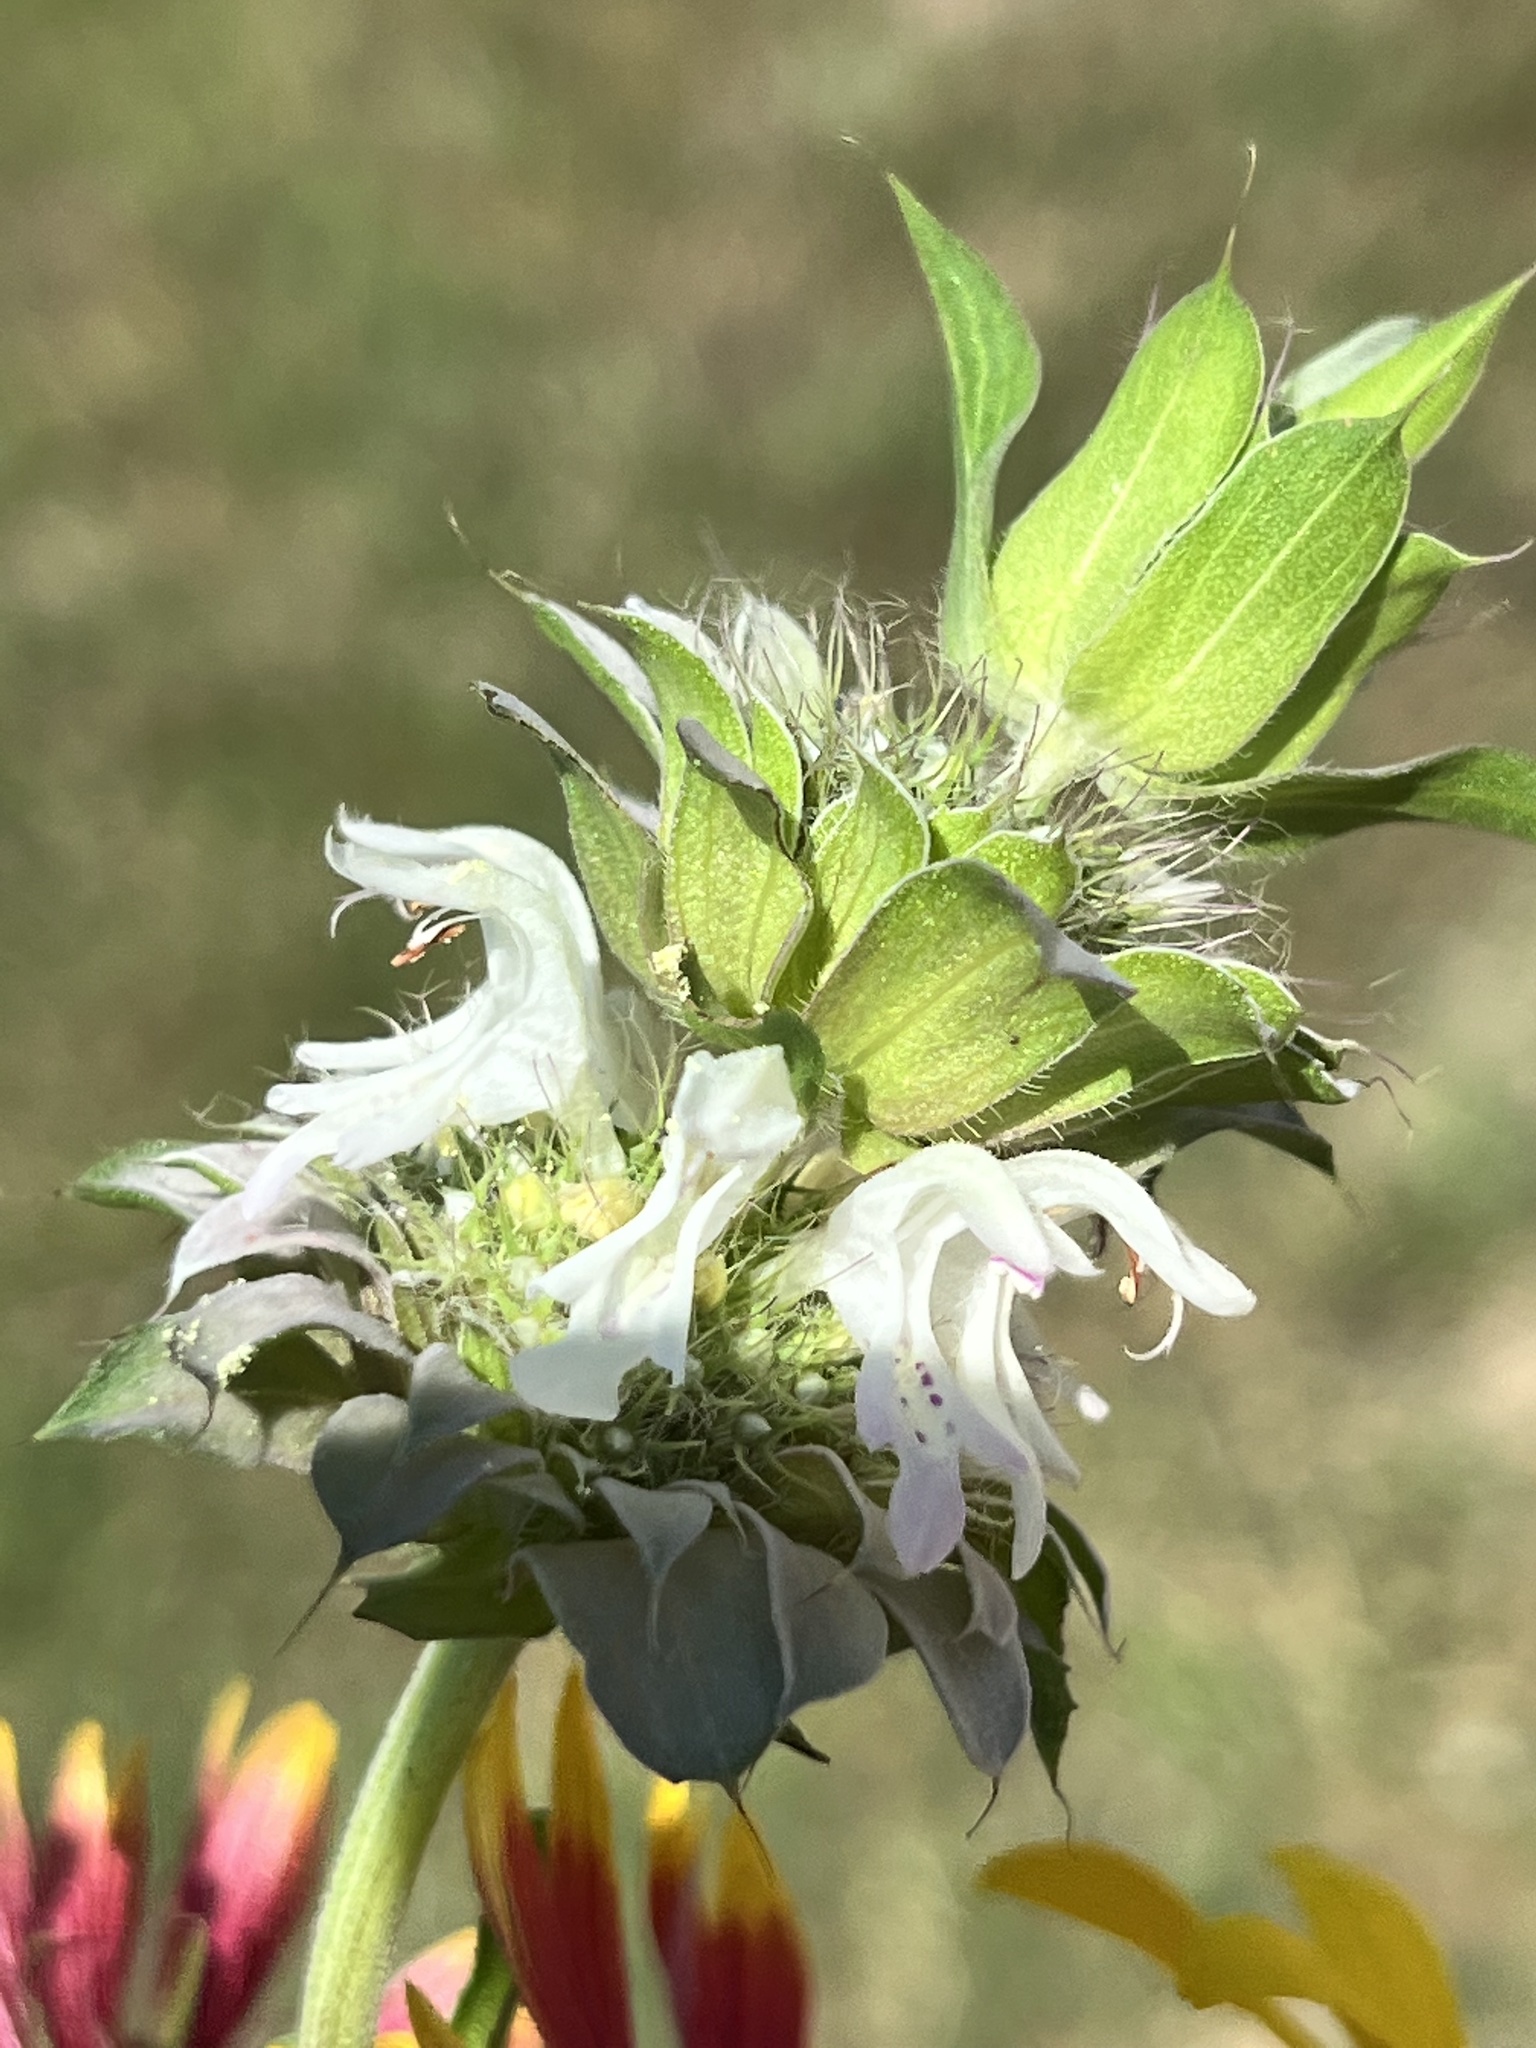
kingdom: Plantae
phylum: Tracheophyta
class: Magnoliopsida
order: Lamiales
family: Lamiaceae
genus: Monarda
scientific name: Monarda citriodora
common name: Lemon beebalm
